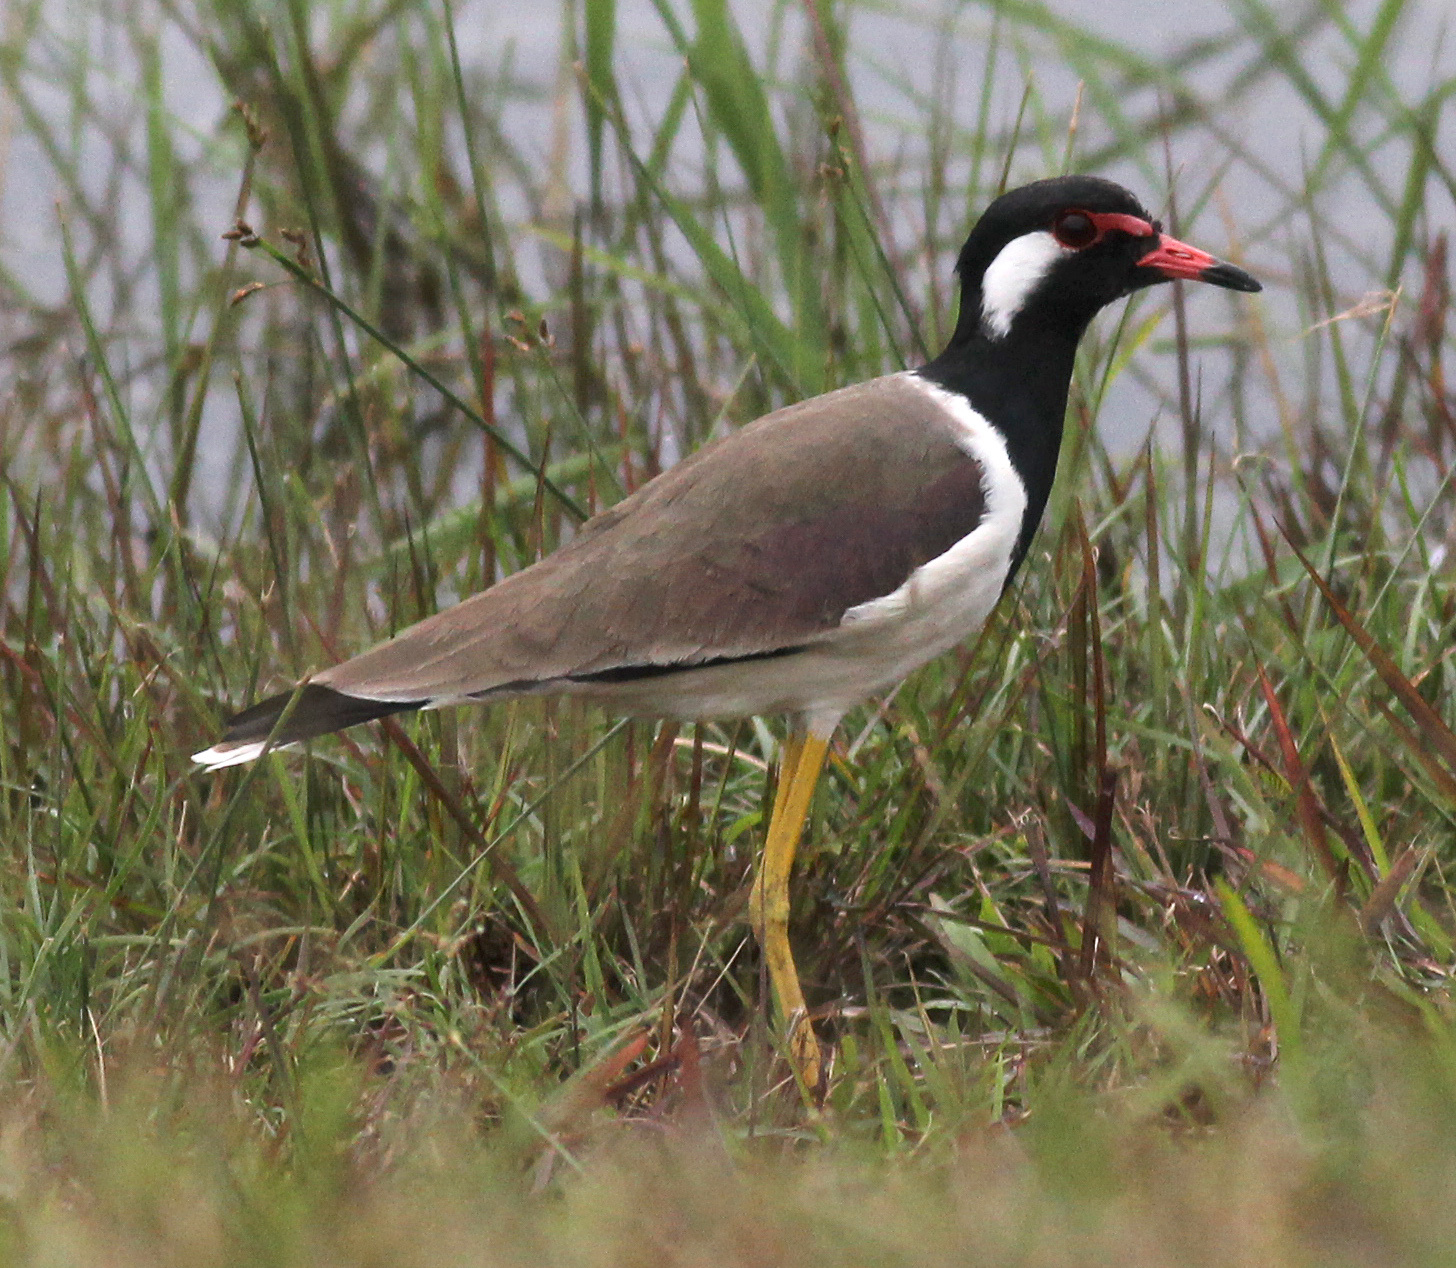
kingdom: Animalia
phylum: Chordata
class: Aves
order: Charadriiformes
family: Charadriidae
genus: Vanellus
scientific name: Vanellus indicus
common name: Red-wattled lapwing
